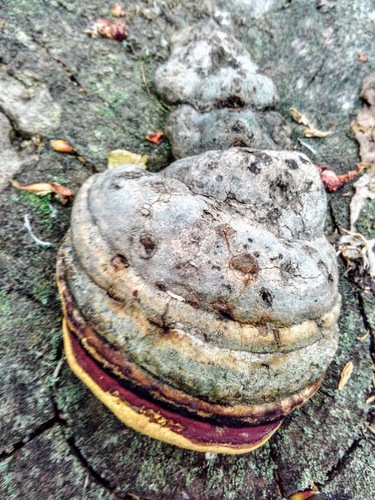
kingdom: Fungi
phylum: Basidiomycota
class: Agaricomycetes
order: Polyporales
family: Fomitopsidaceae
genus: Fomitopsis
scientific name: Fomitopsis pinicola
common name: Red-belted bracket
